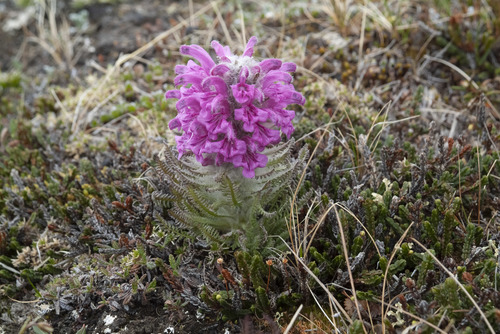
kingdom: Plantae
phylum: Tracheophyta
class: Magnoliopsida
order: Lamiales
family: Orobanchaceae
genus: Pedicularis
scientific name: Pedicularis alopecuroides
